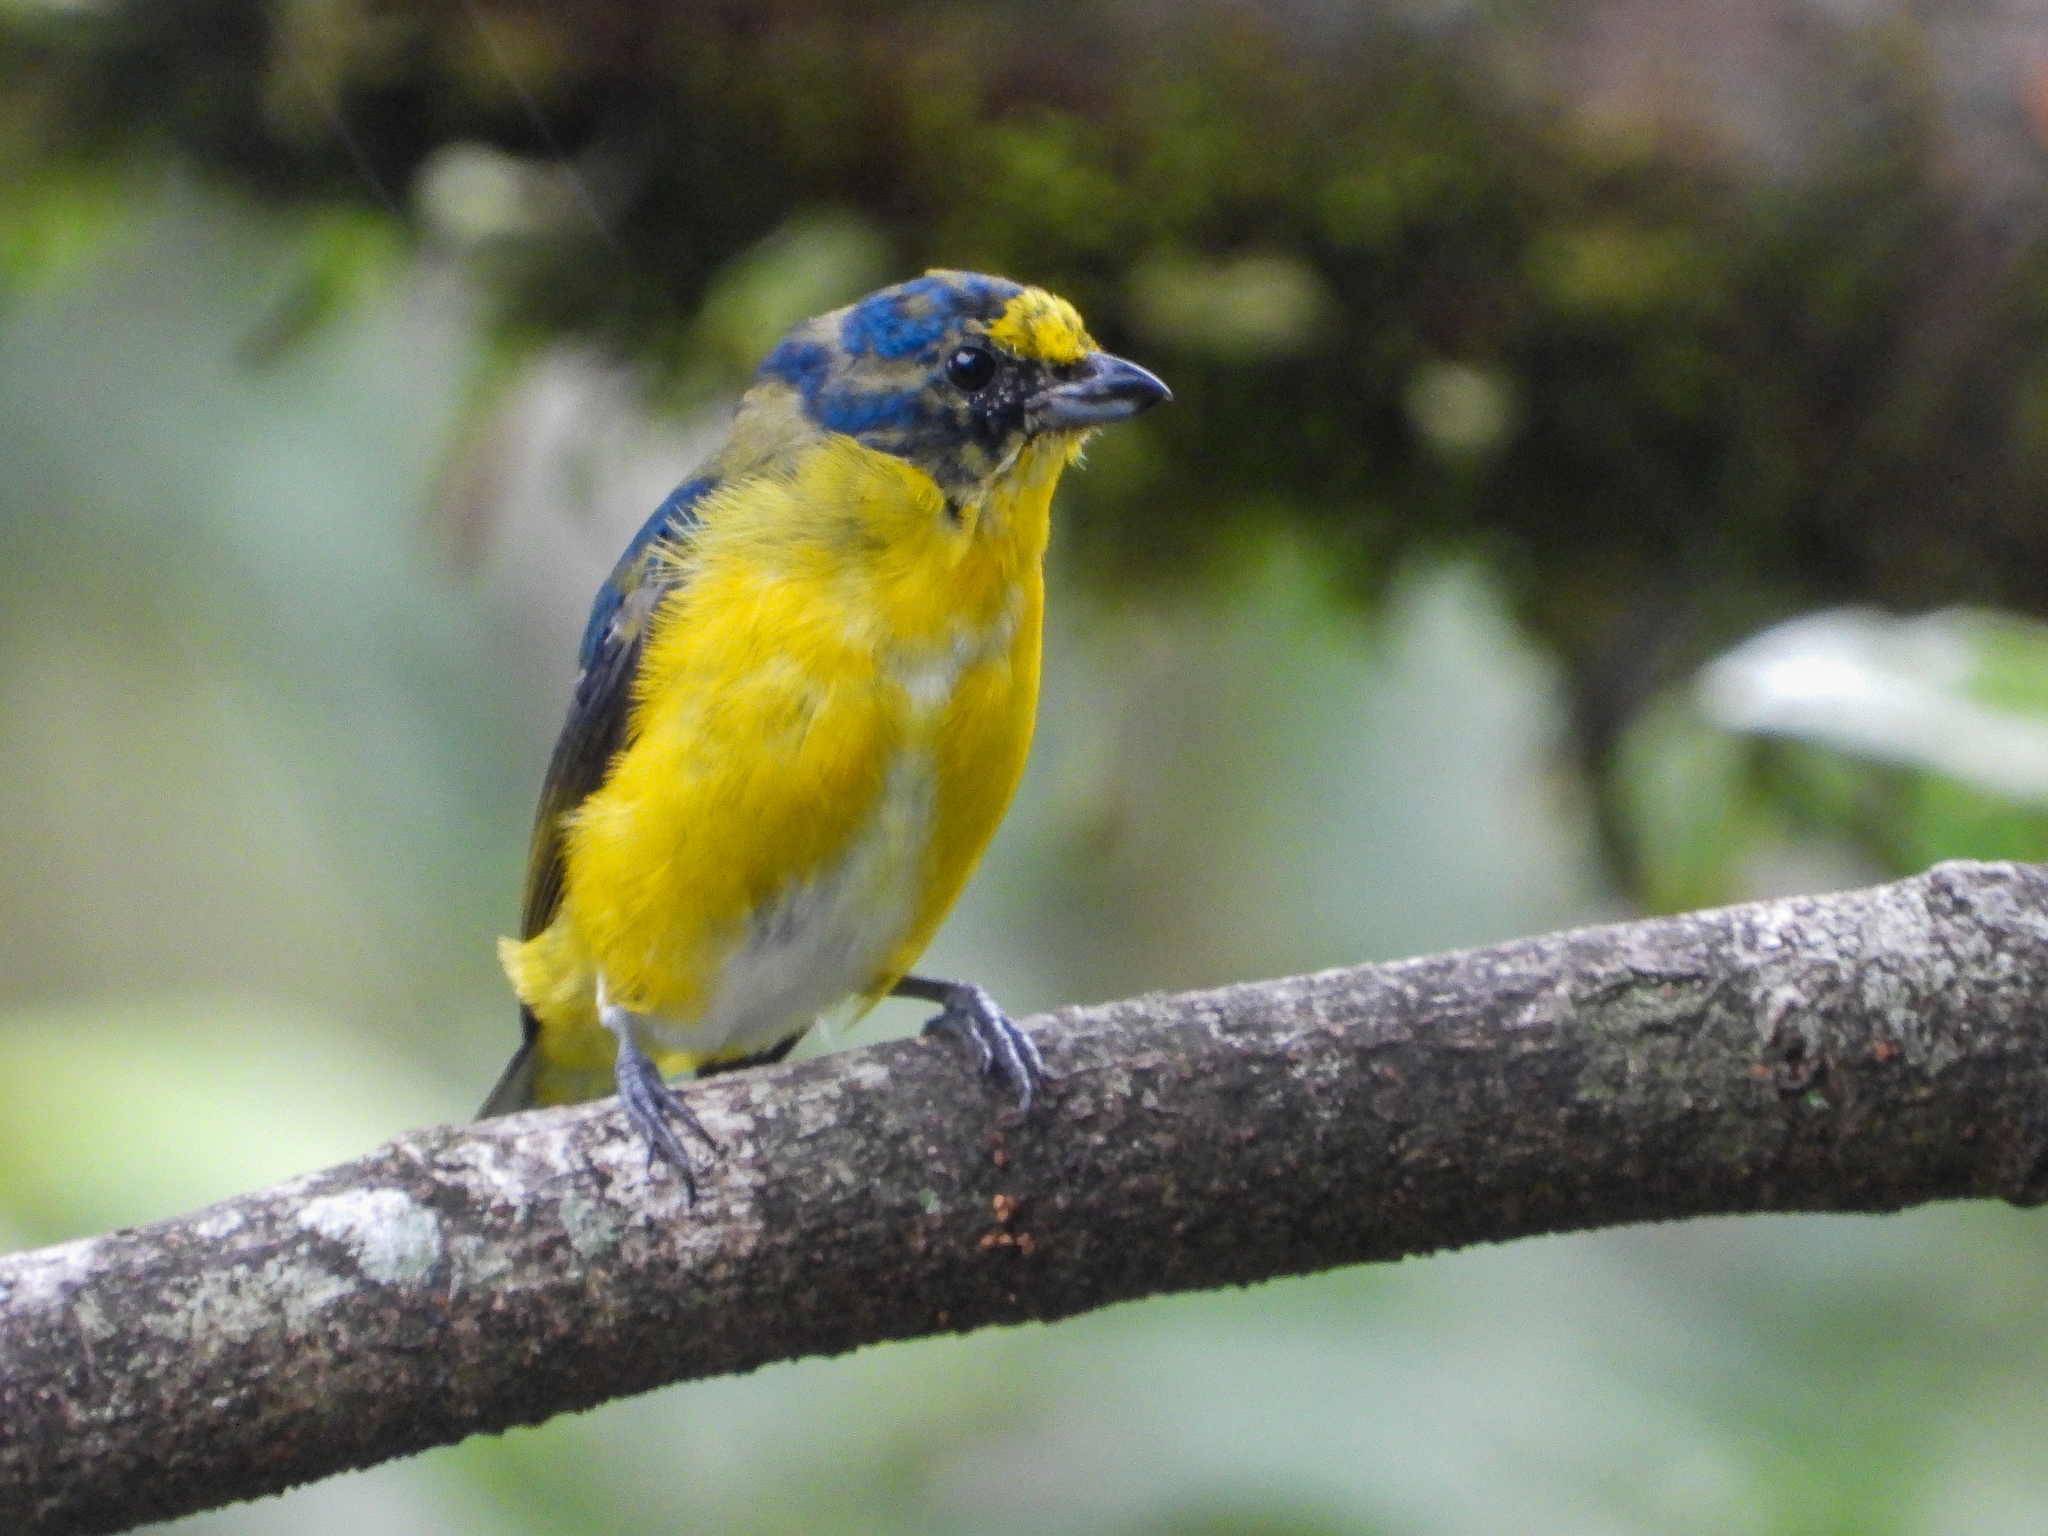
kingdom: Animalia
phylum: Chordata
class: Aves
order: Passeriformes
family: Fringillidae
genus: Euphonia
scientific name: Euphonia hirundinacea
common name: Yellow-throated euphonia
